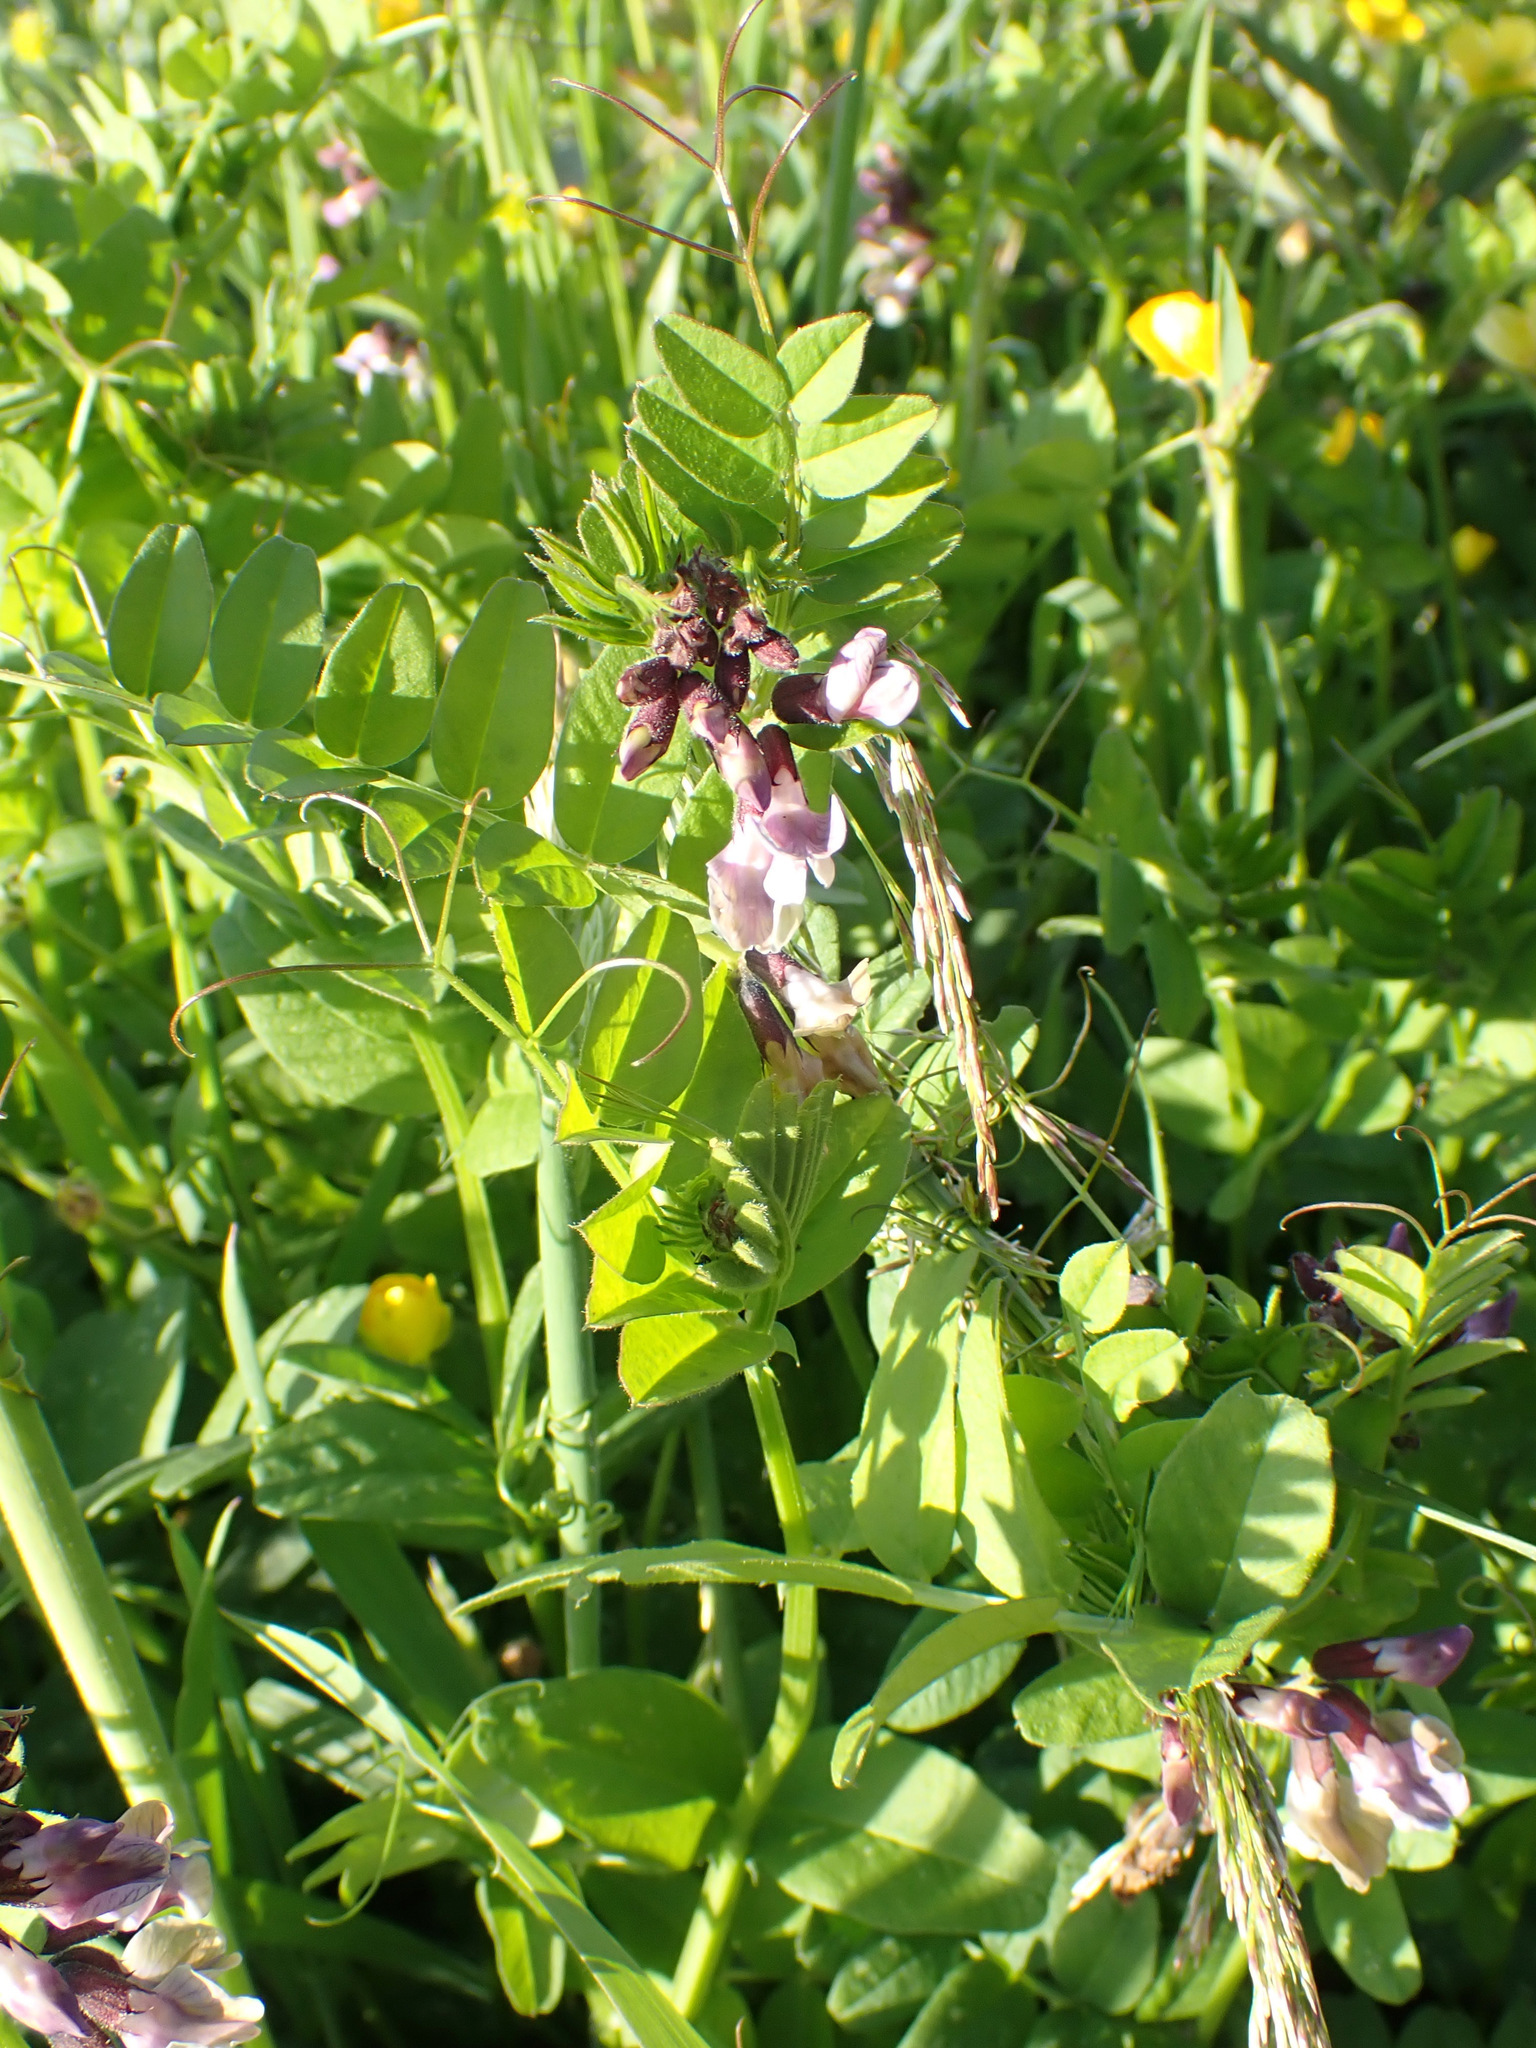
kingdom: Plantae
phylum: Tracheophyta
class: Magnoliopsida
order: Fabales
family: Fabaceae
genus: Vicia
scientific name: Vicia sepium
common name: Bush vetch
